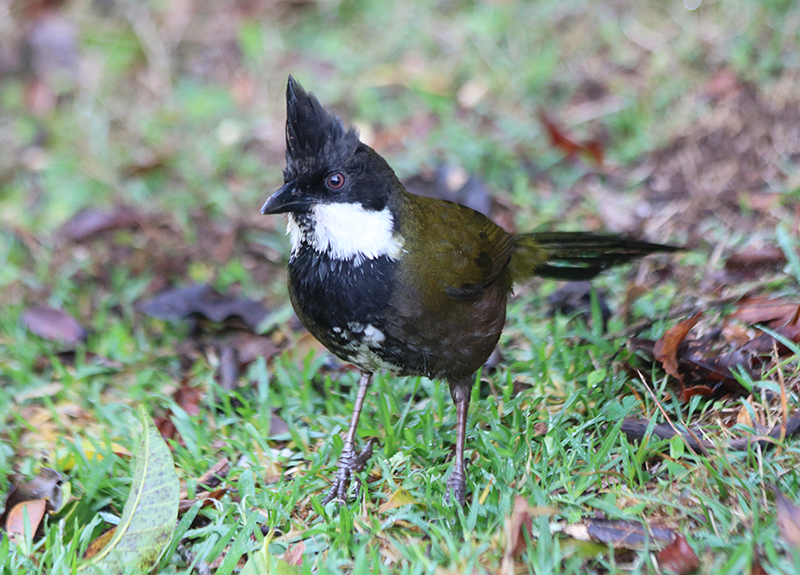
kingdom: Animalia
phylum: Chordata
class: Aves
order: Passeriformes
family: Psophodidae
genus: Psophodes
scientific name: Psophodes olivaceus
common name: Eastern whipbird
